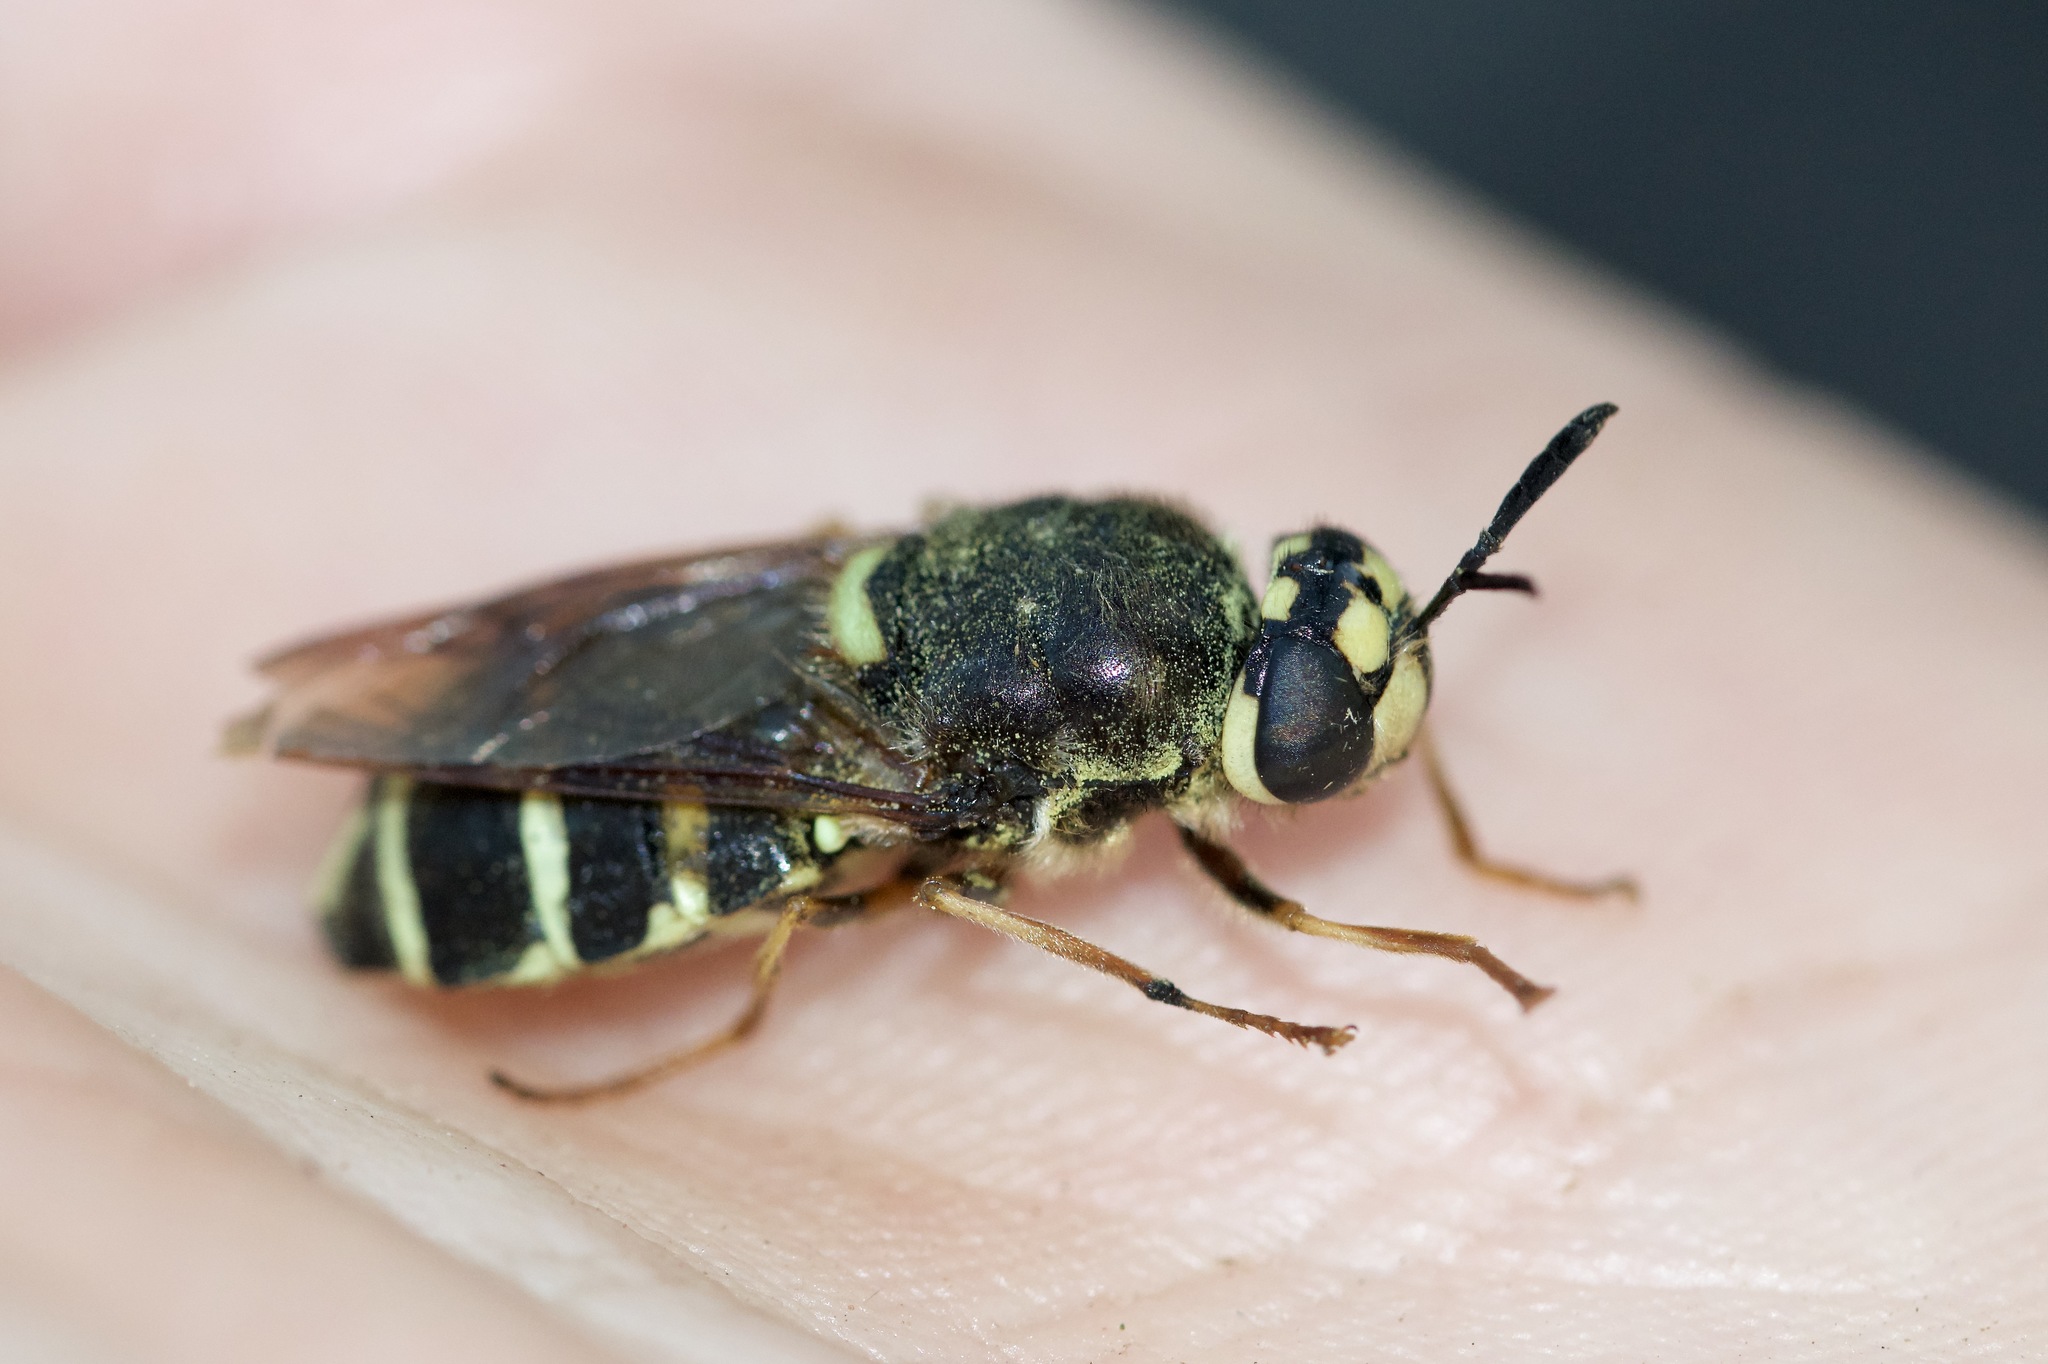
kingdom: Animalia
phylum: Arthropoda
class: Insecta
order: Diptera
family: Stratiomyidae
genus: Stratiomys
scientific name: Stratiomys badia
